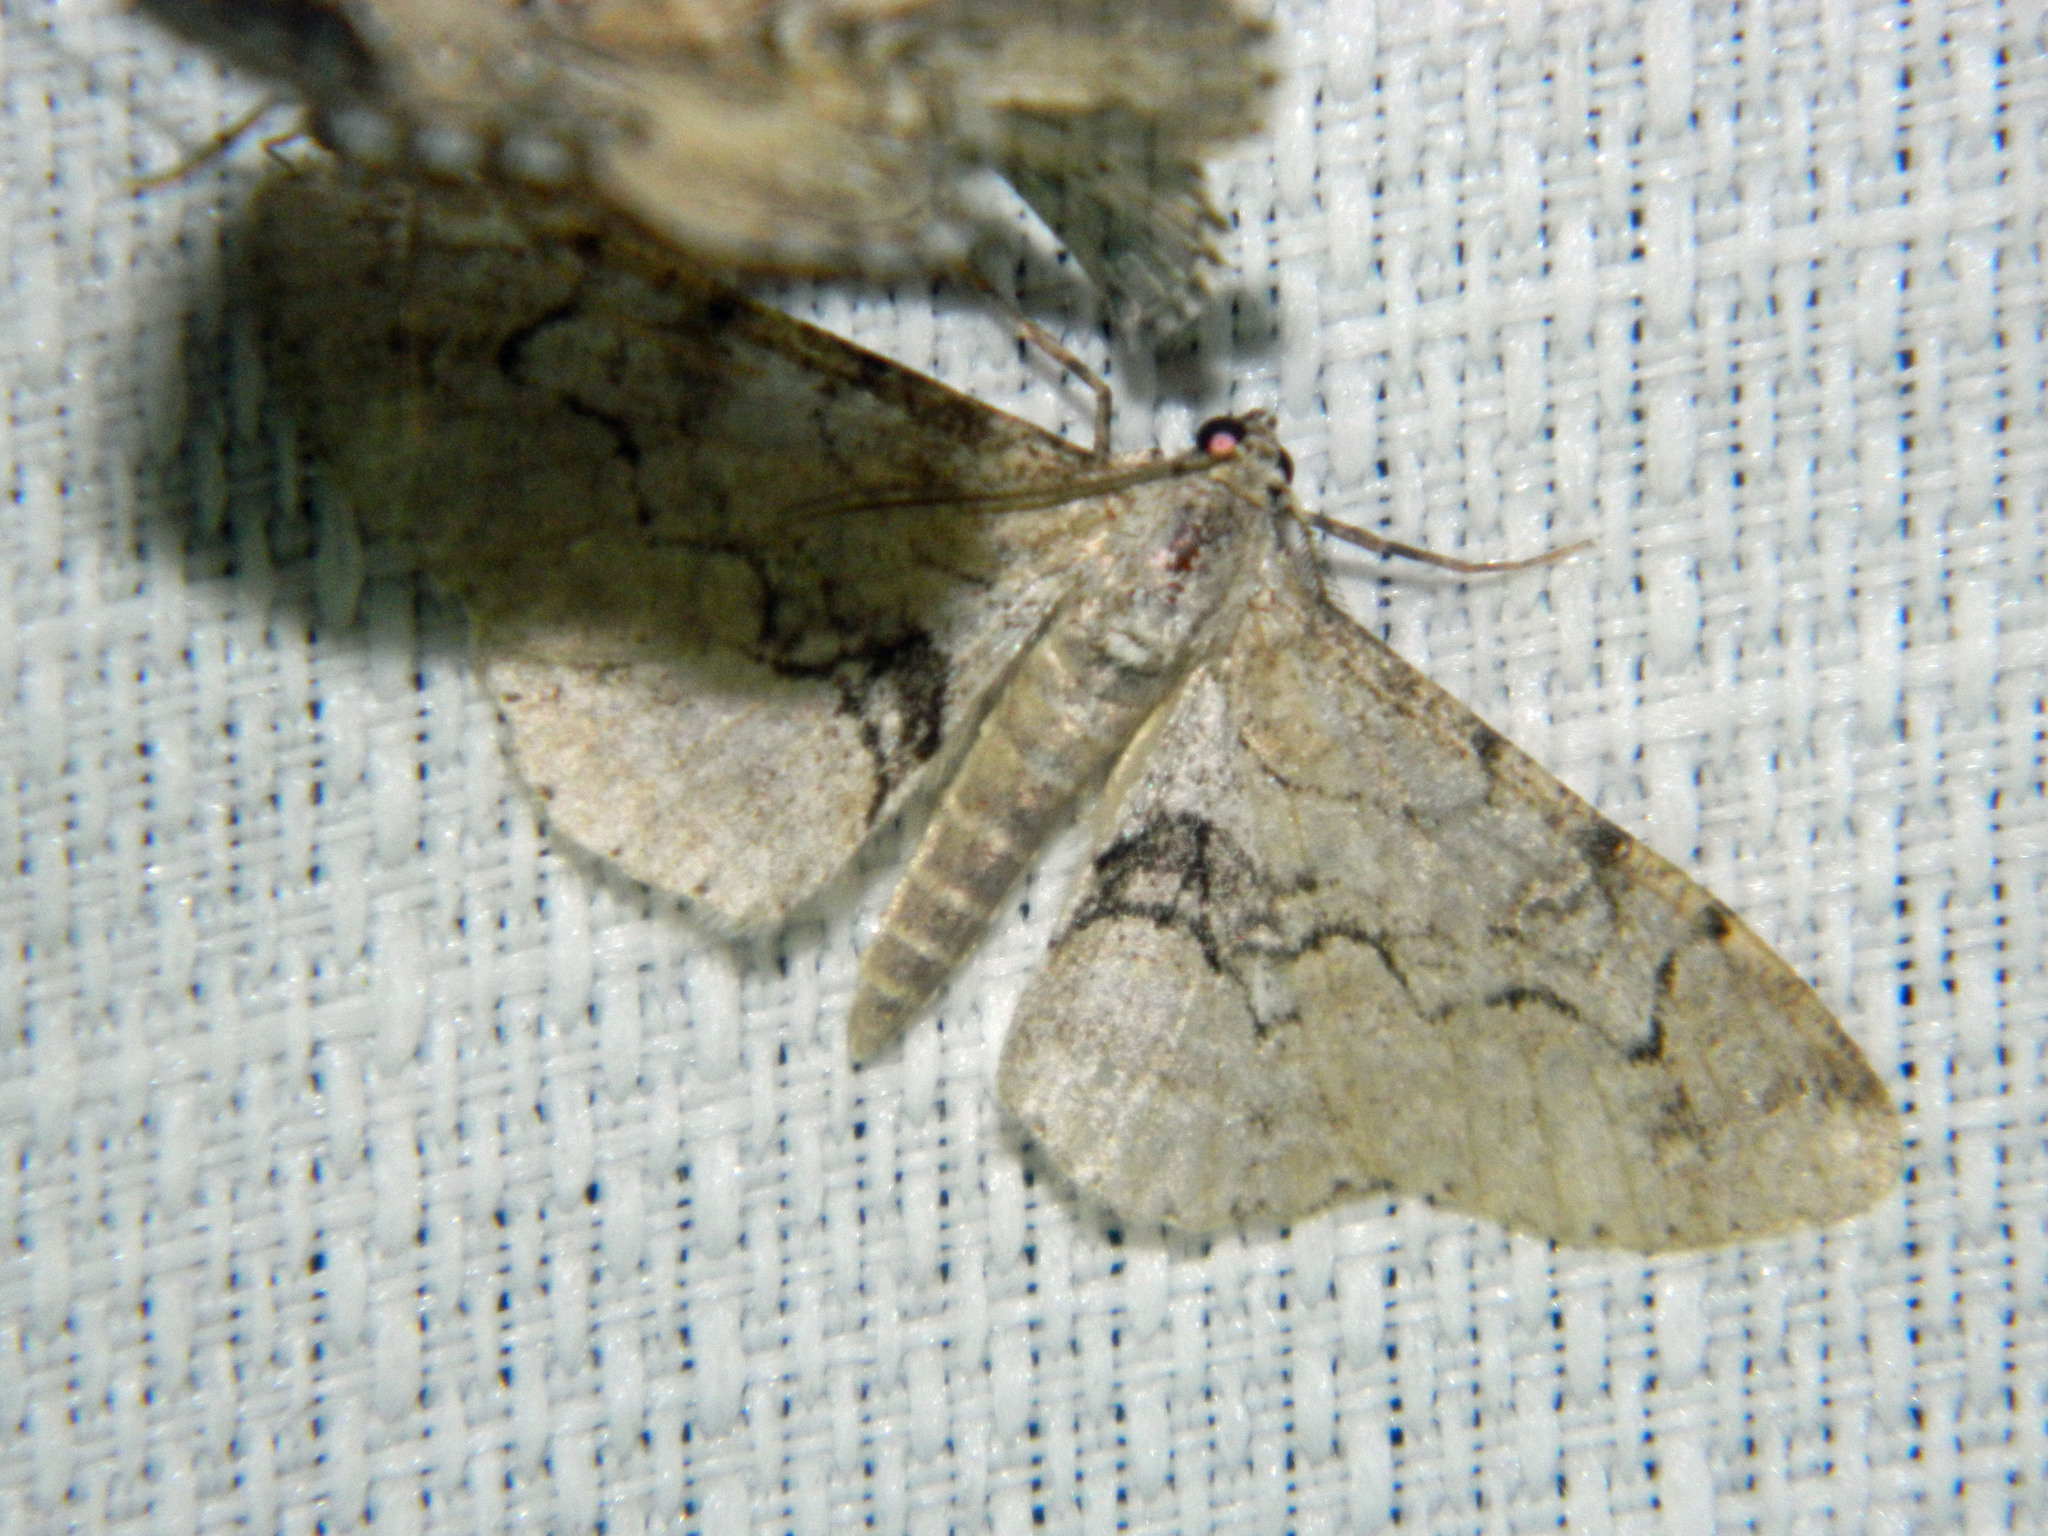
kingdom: Animalia
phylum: Arthropoda
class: Insecta
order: Lepidoptera
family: Geometridae
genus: Iridopsis
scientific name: Iridopsis larvaria
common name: Bent-line gray
